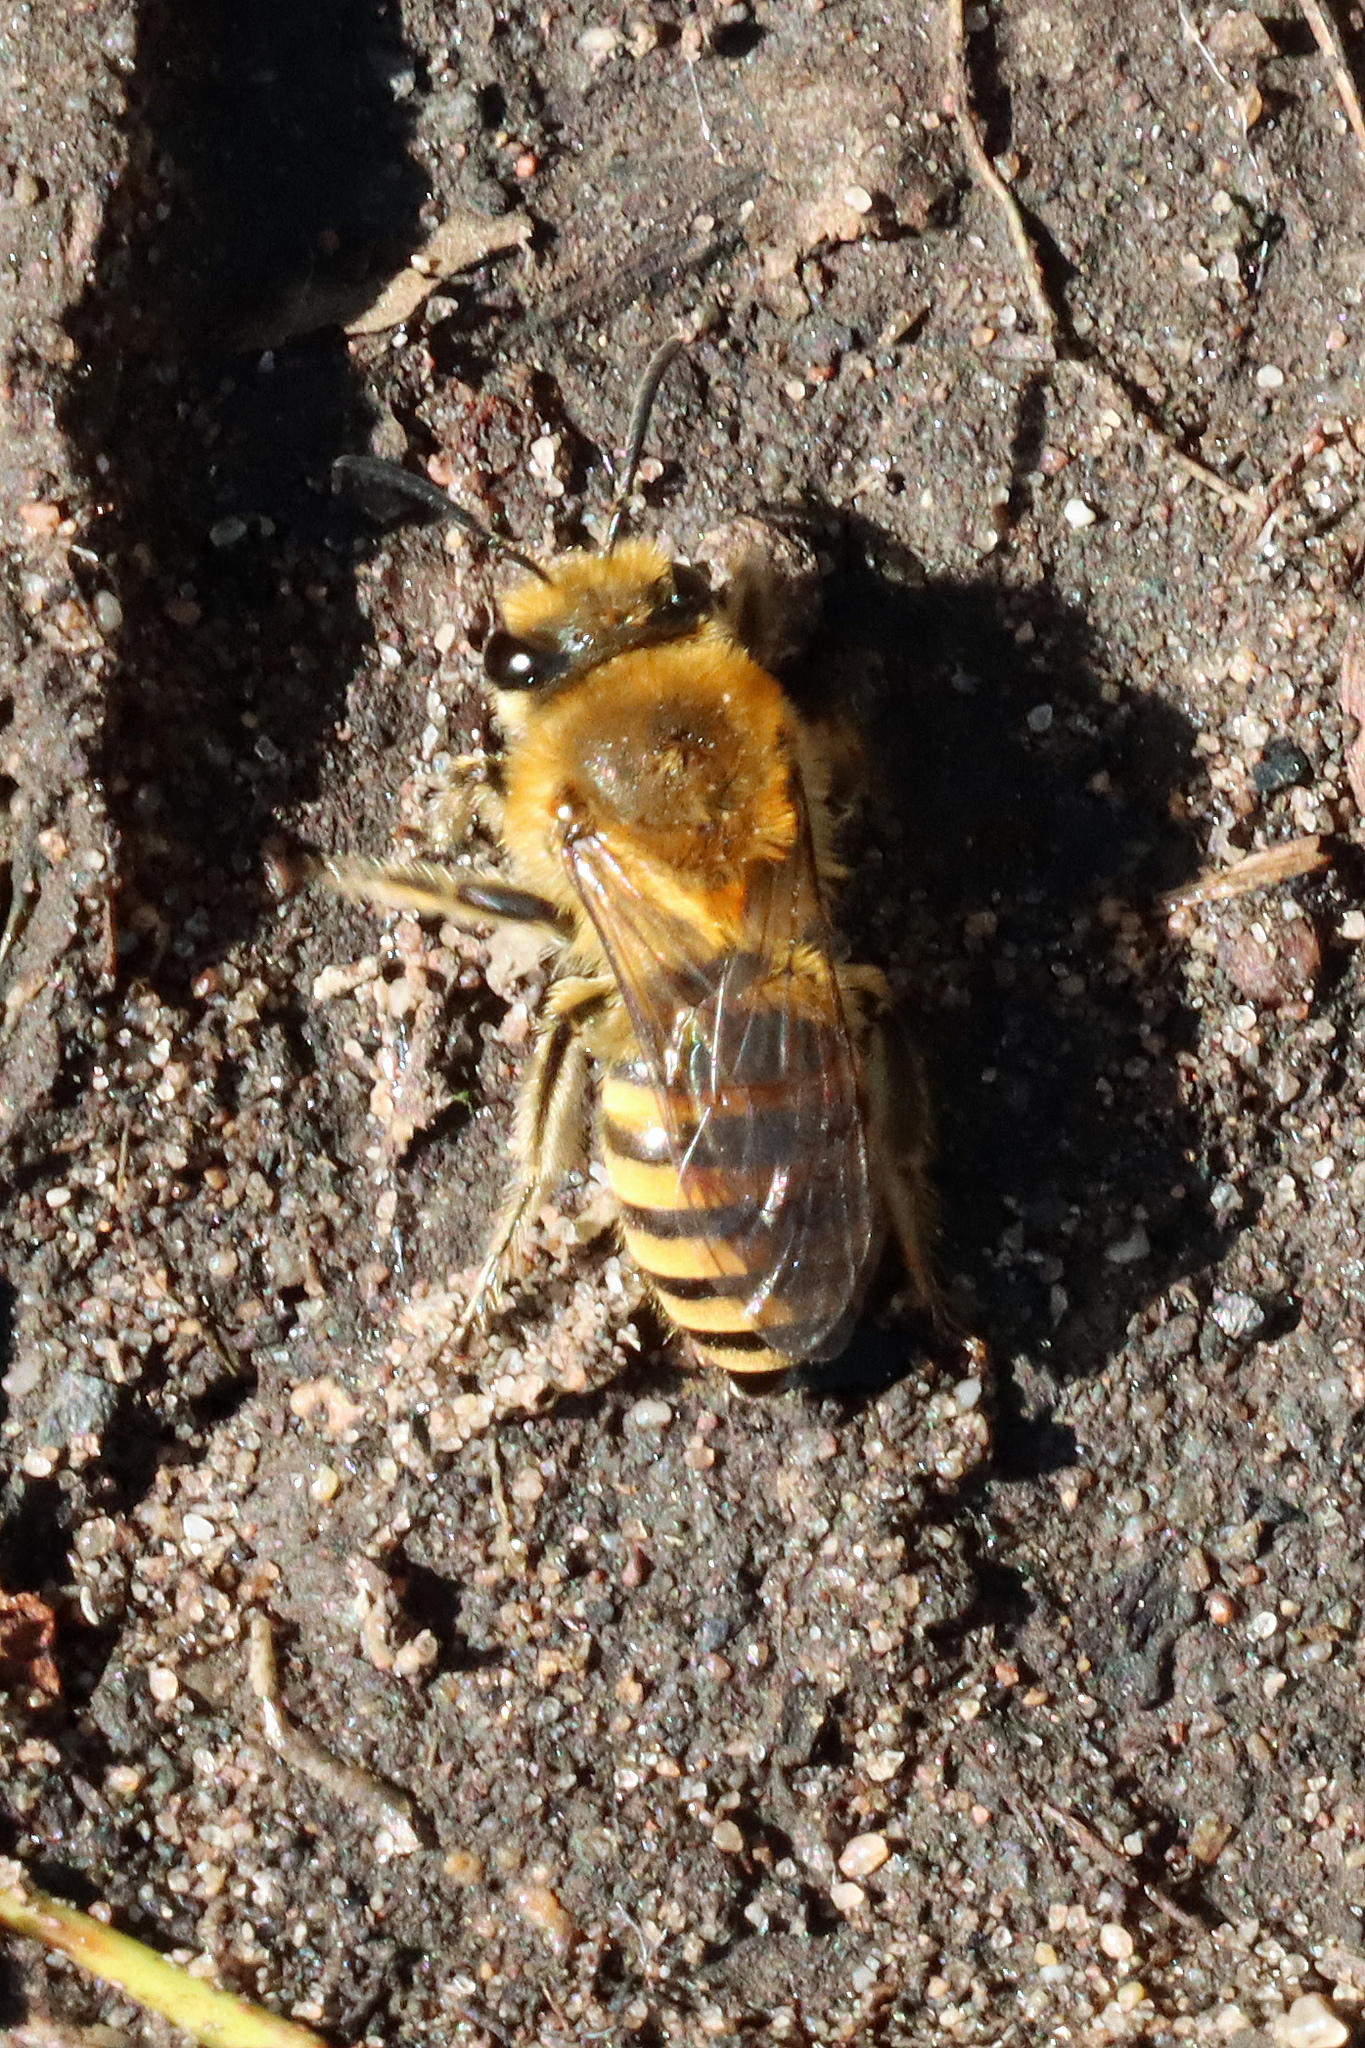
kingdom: Animalia
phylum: Arthropoda
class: Insecta
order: Hymenoptera
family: Colletidae
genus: Colletes
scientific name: Colletes hederae
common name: Ivy bee
